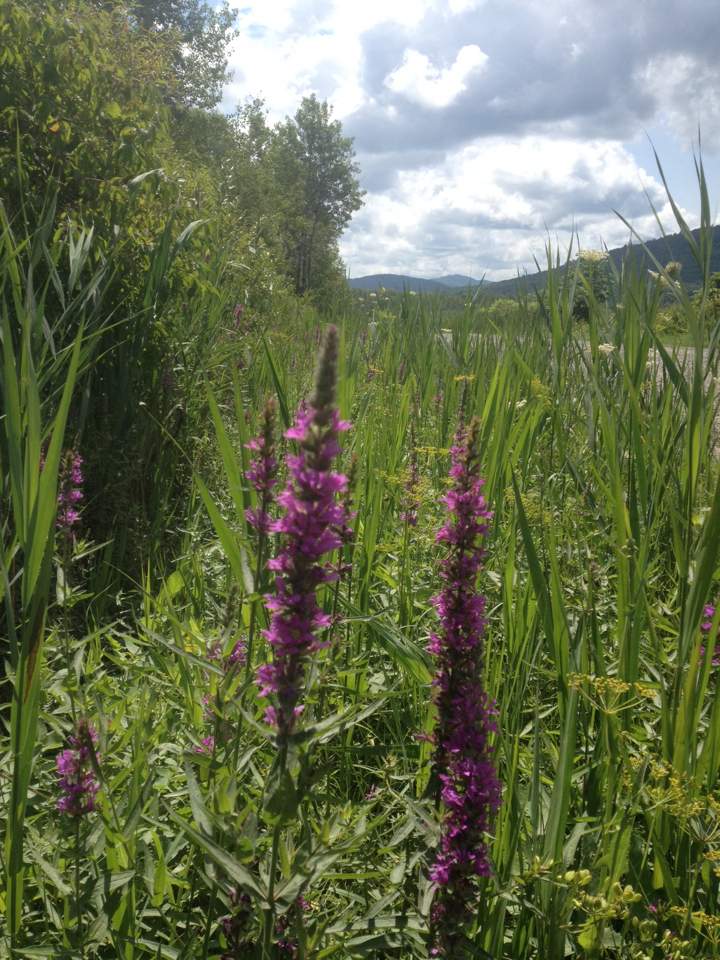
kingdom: Plantae
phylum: Tracheophyta
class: Magnoliopsida
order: Myrtales
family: Lythraceae
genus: Lythrum
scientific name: Lythrum salicaria
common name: Purple loosestrife
